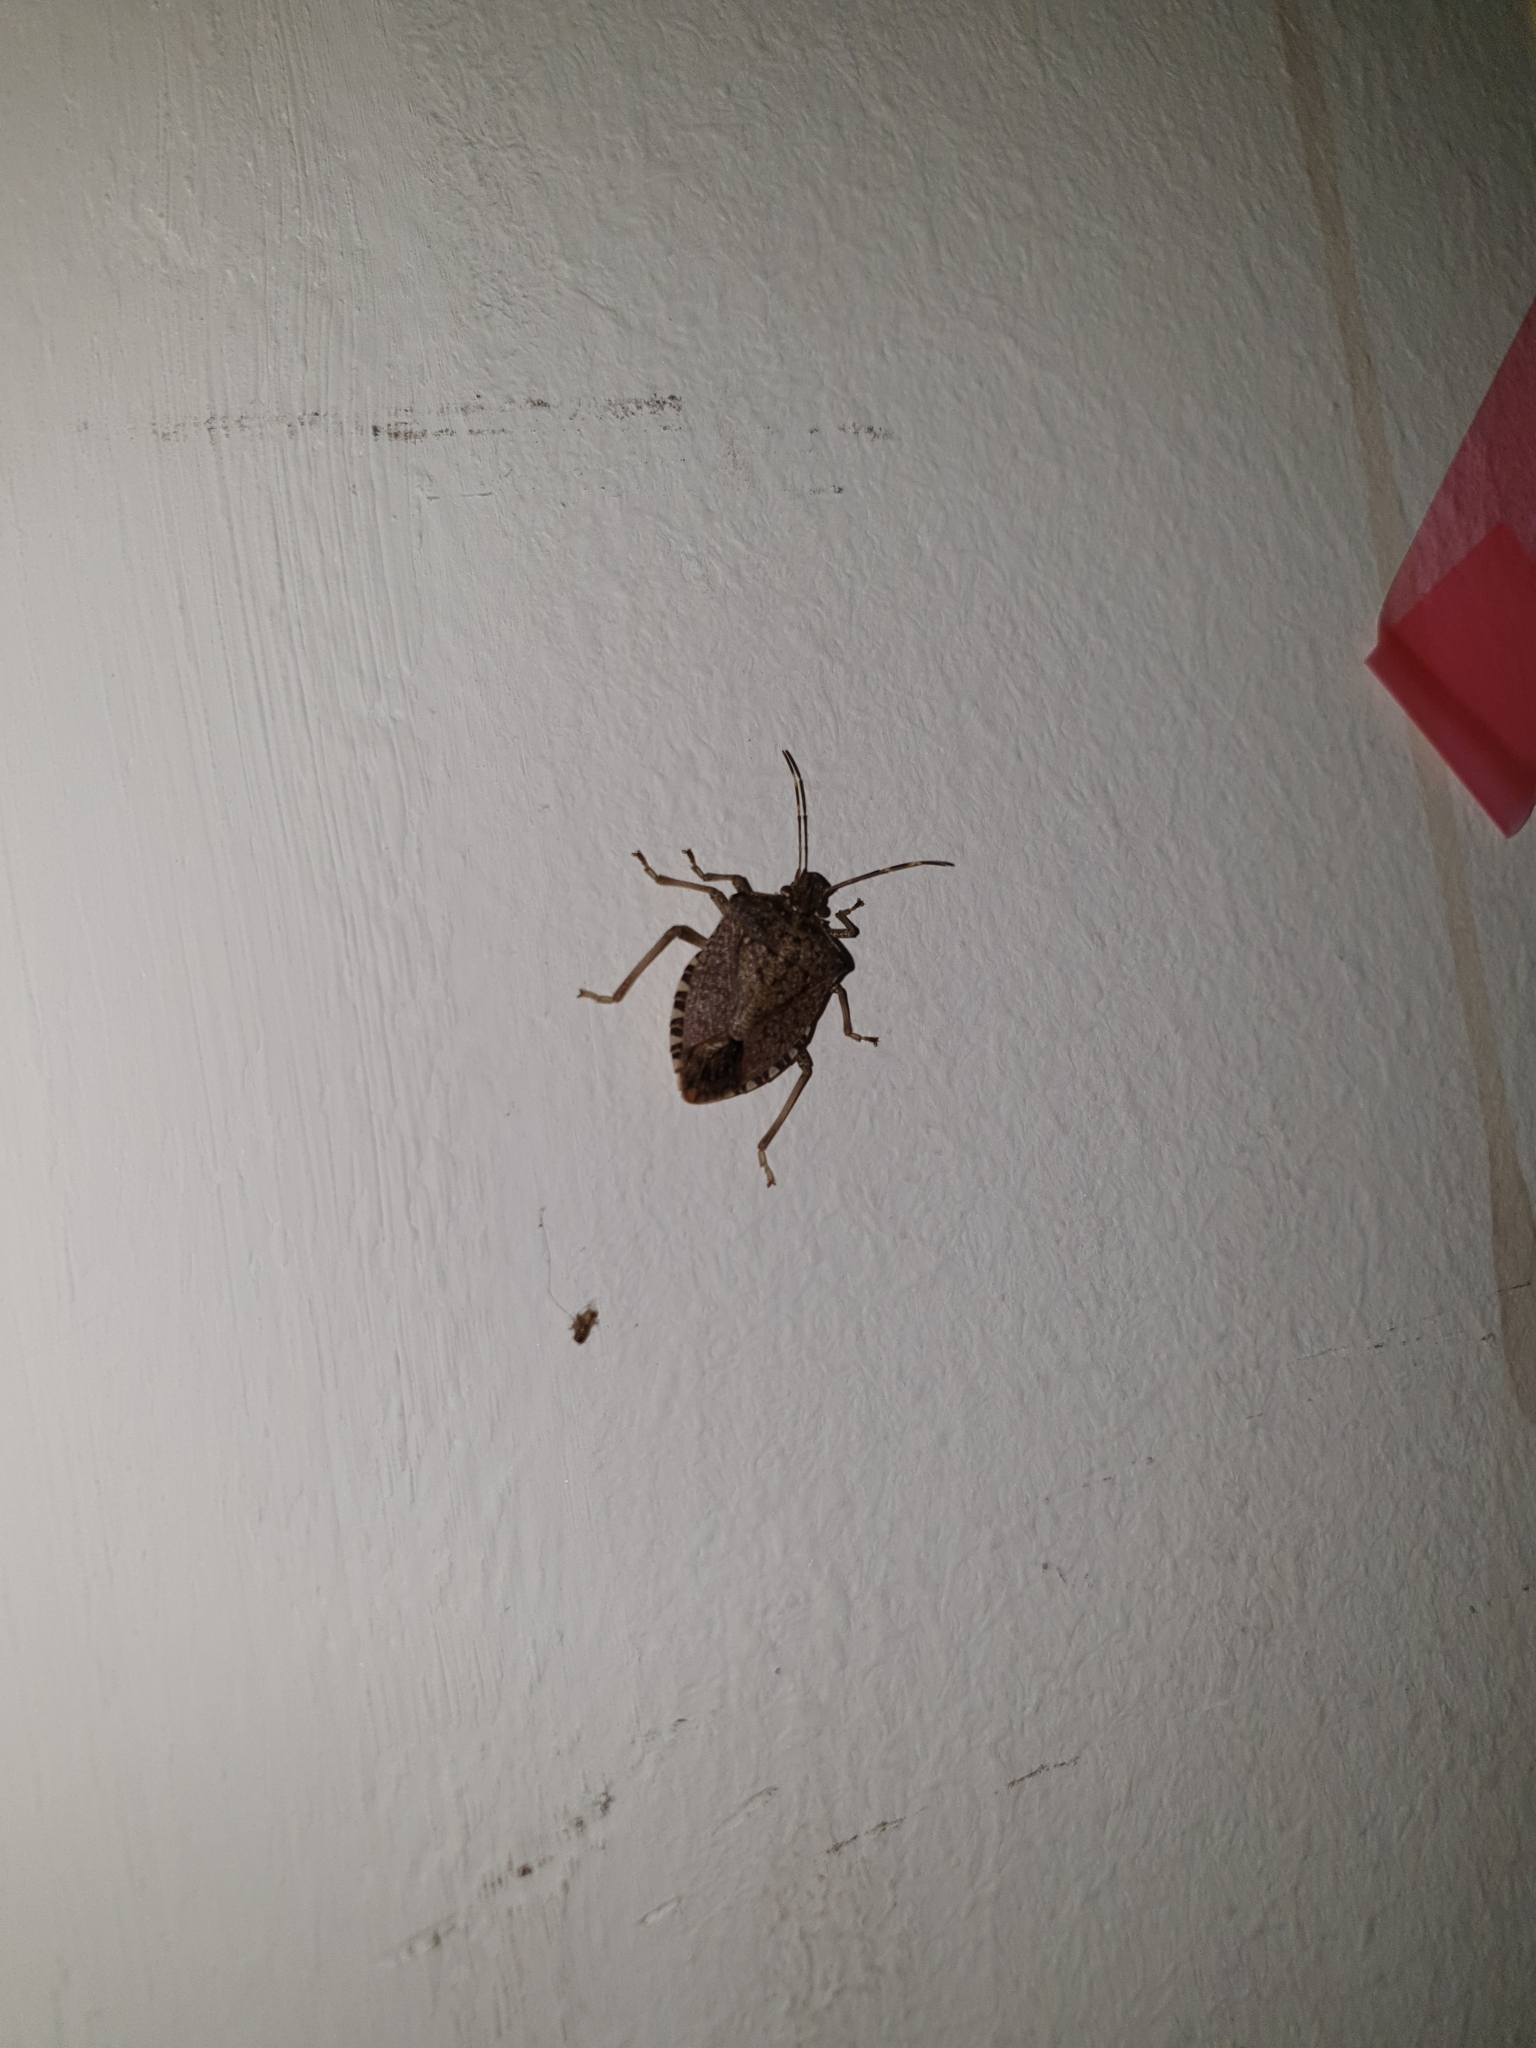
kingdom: Animalia
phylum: Arthropoda
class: Insecta
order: Hemiptera
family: Pentatomidae
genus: Halyomorpha
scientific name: Halyomorpha halys
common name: Brown marmorated stink bug
